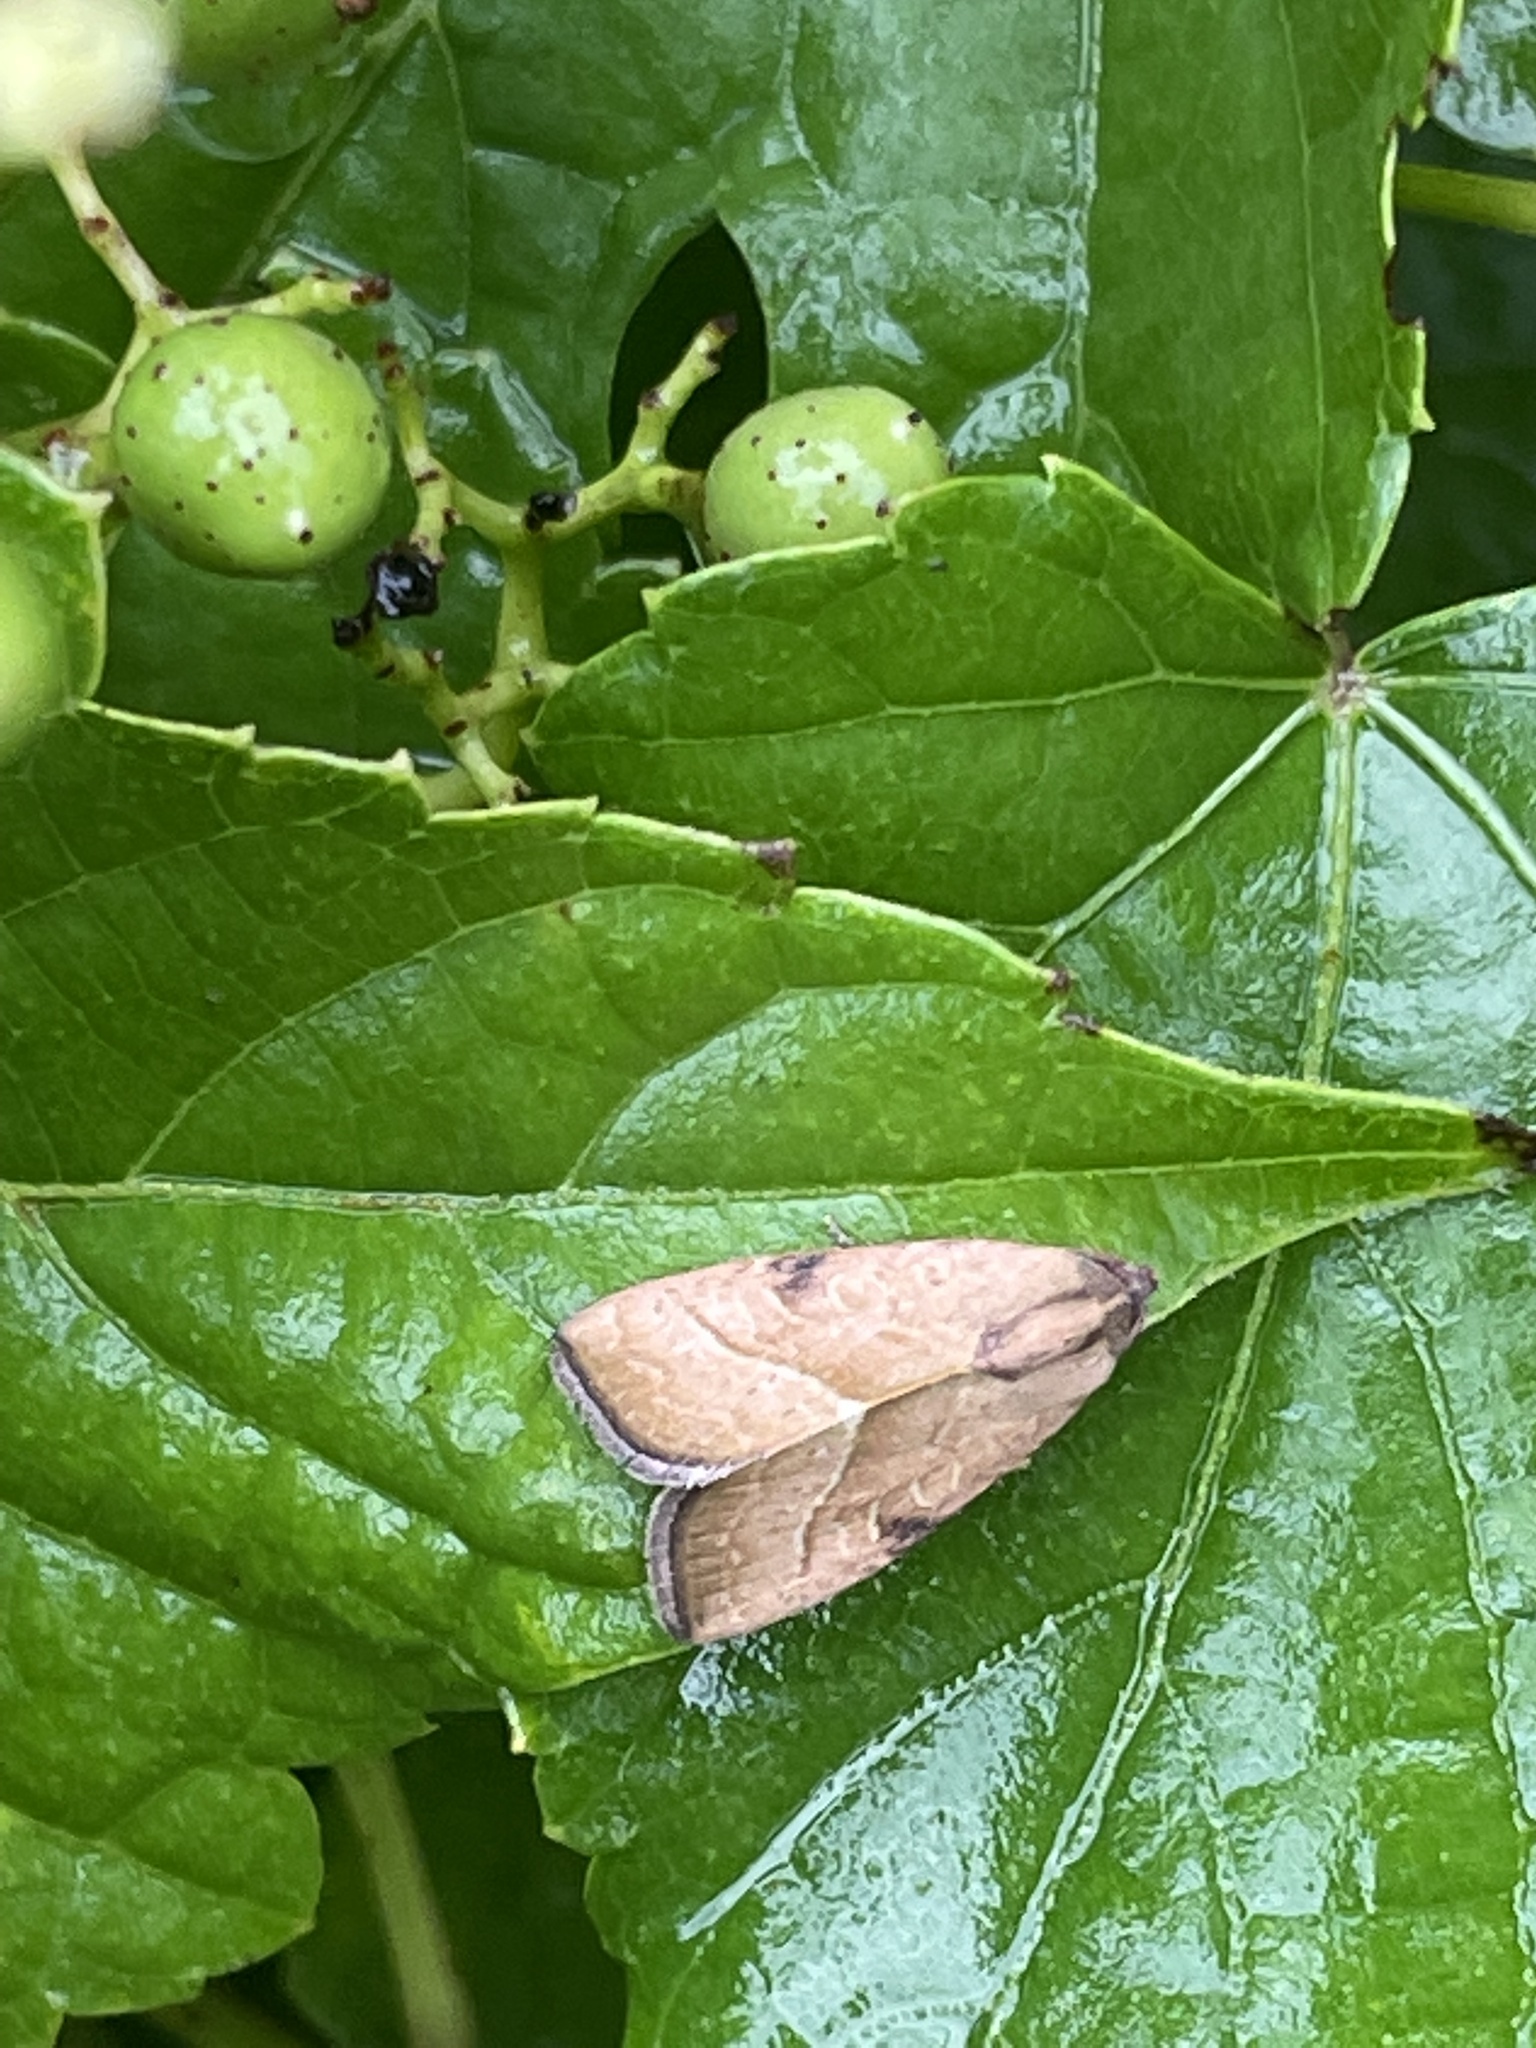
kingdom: Animalia
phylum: Arthropoda
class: Insecta
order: Lepidoptera
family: Noctuidae
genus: Galgula
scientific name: Galgula partita
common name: Wedgeling
